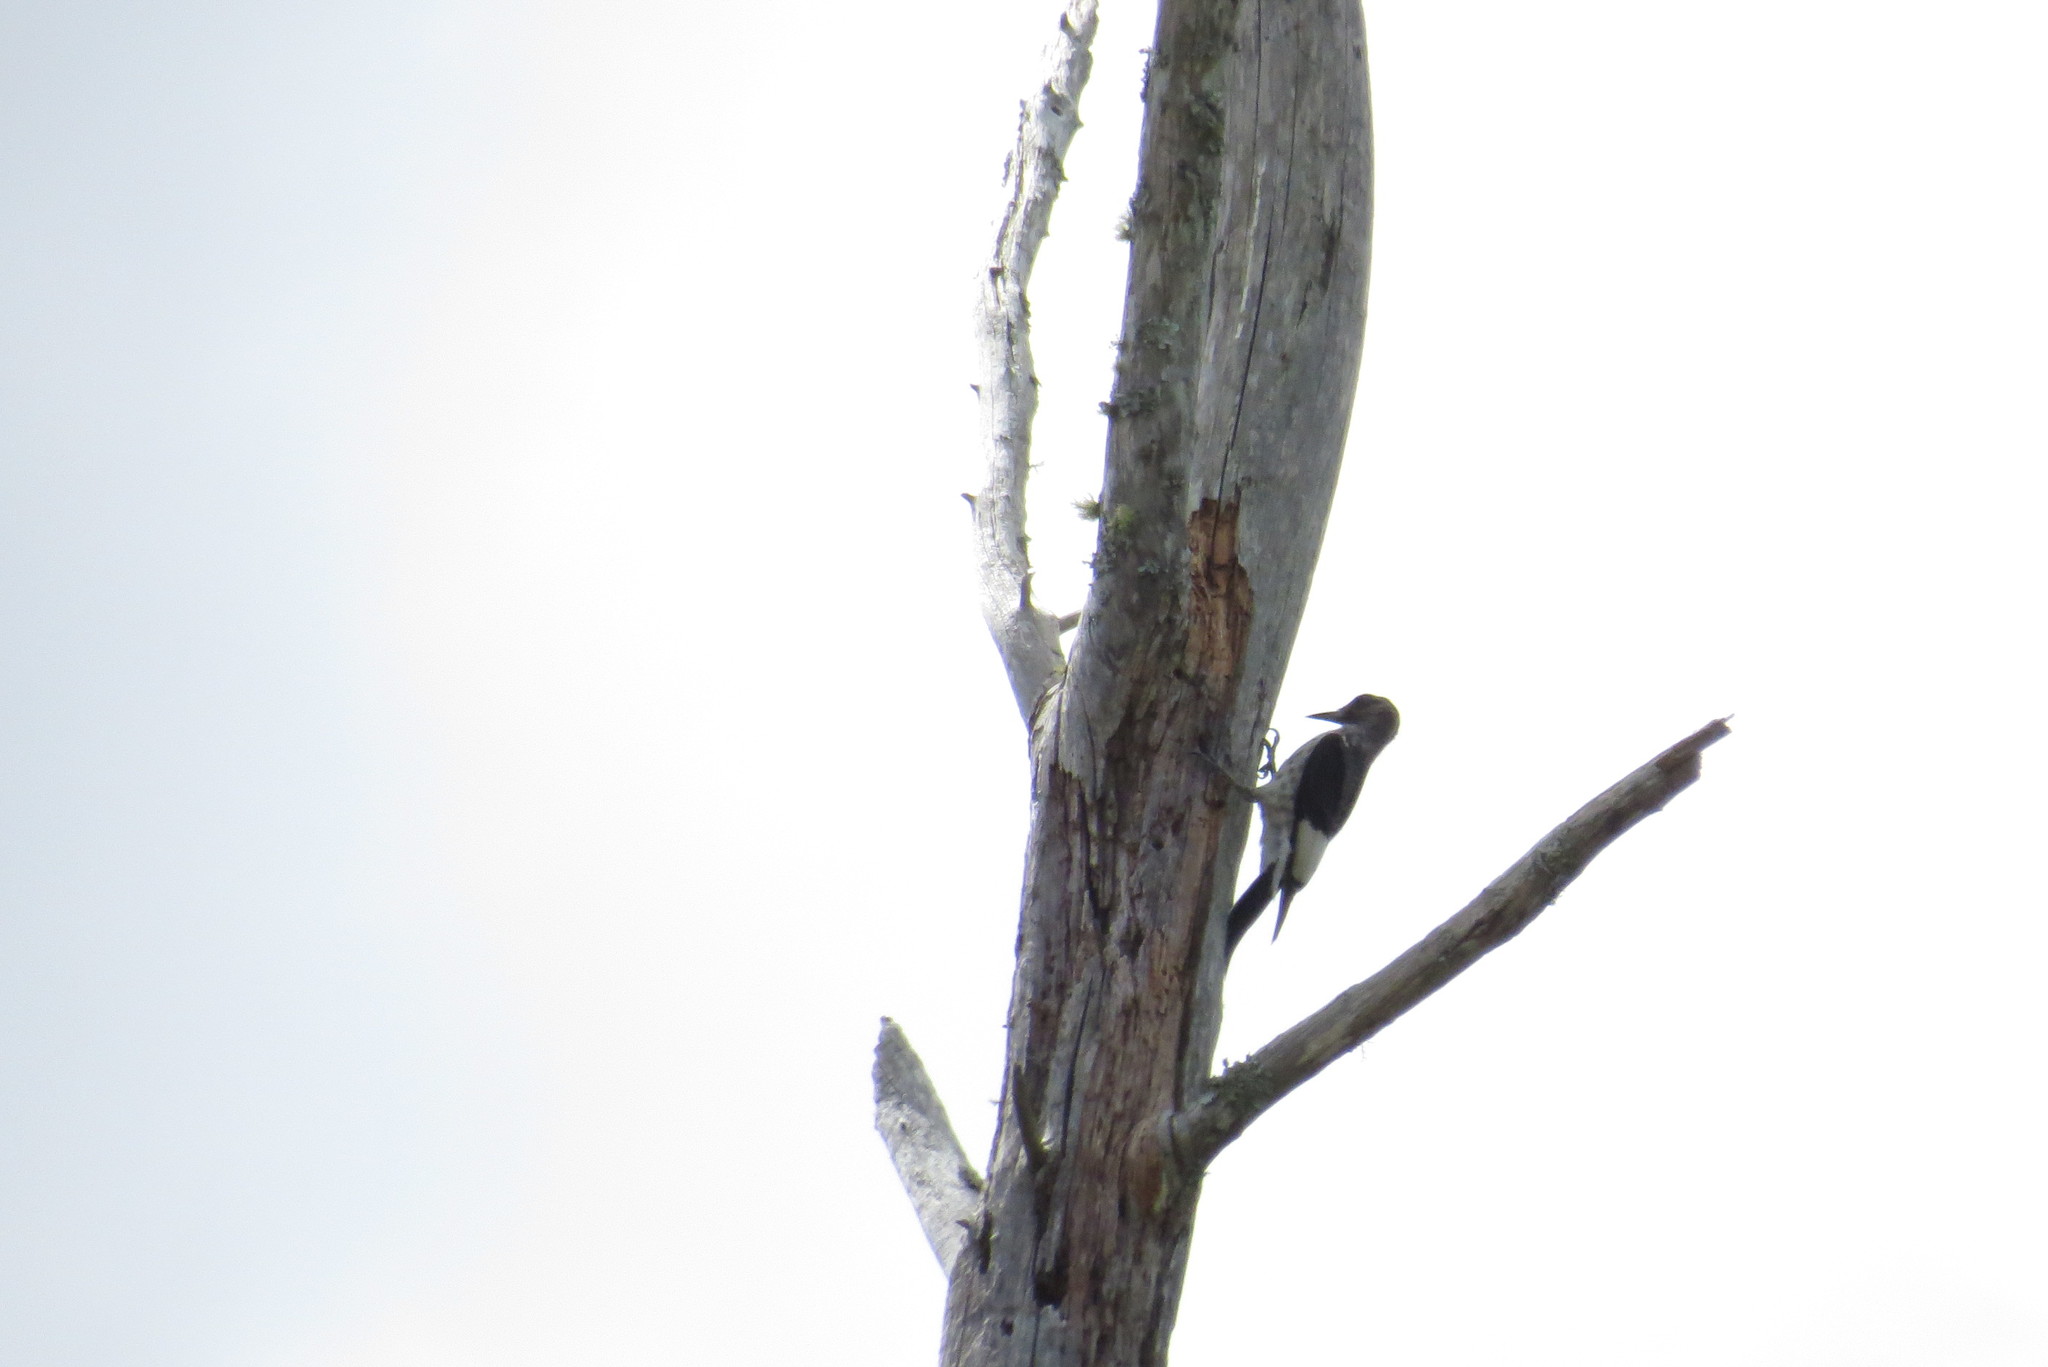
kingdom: Animalia
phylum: Chordata
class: Aves
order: Piciformes
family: Picidae
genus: Melanerpes
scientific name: Melanerpes erythrocephalus
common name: Red-headed woodpecker
